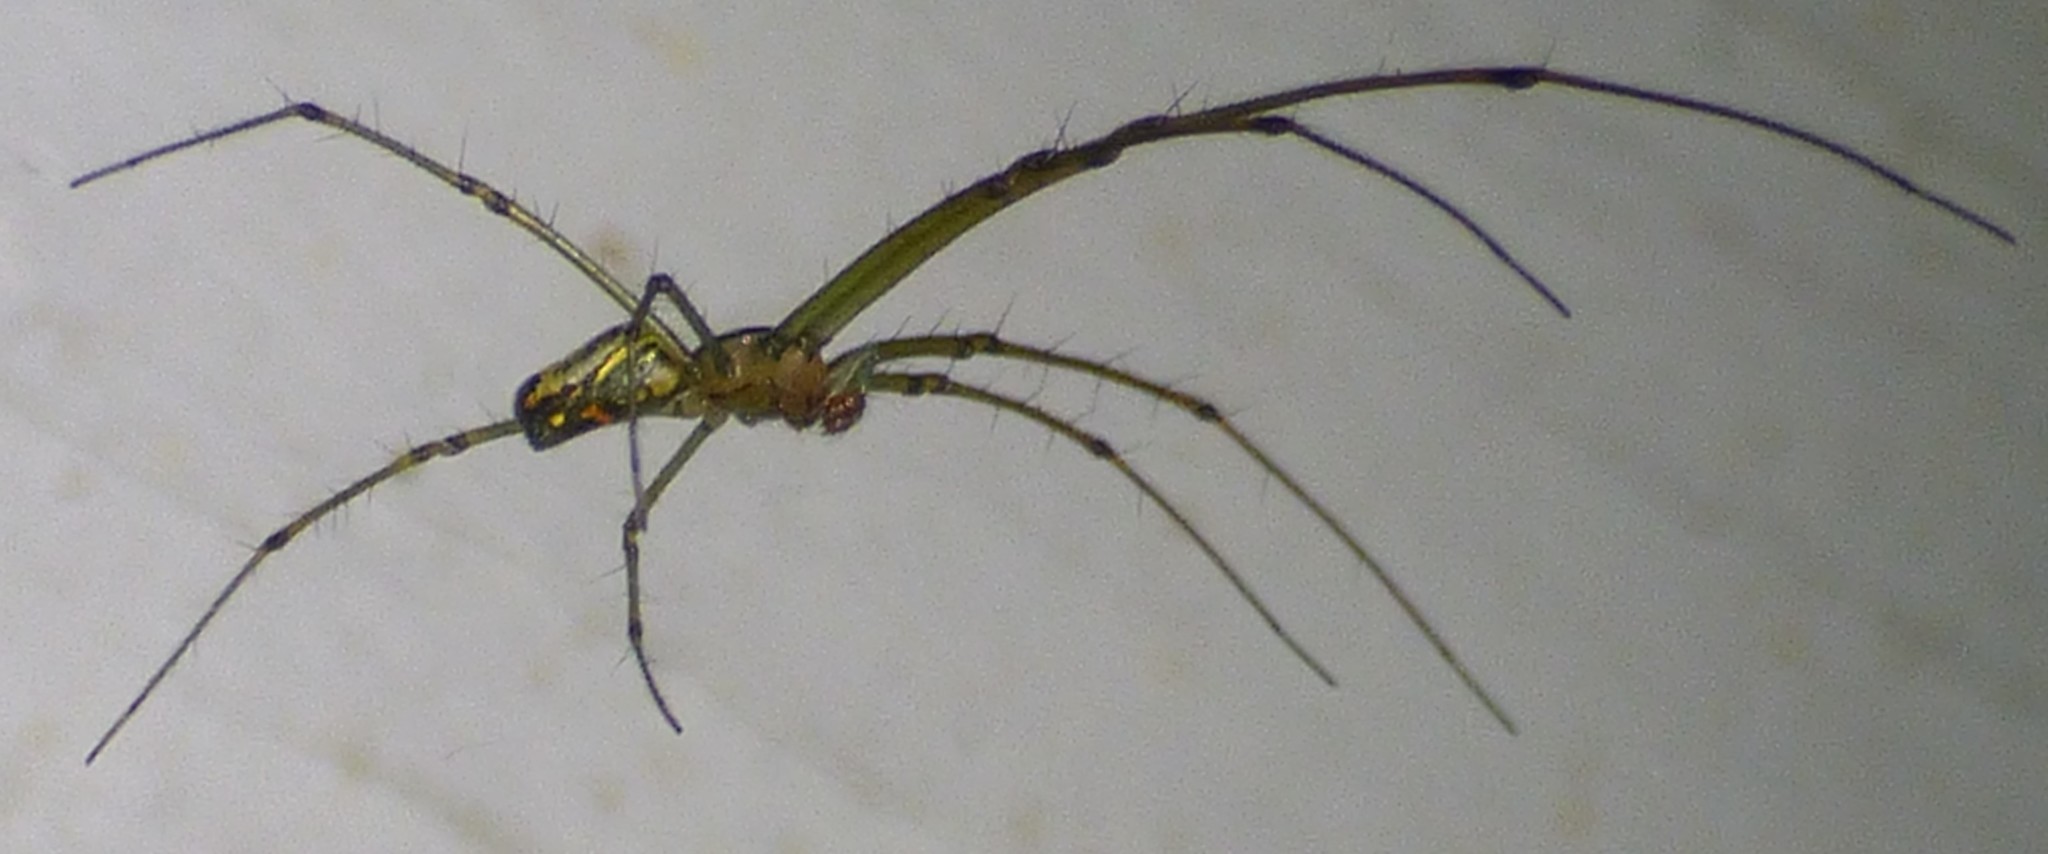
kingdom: Animalia
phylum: Arthropoda
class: Arachnida
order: Araneae
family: Tetragnathidae
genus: Leucauge
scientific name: Leucauge venusta
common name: Longjawed orb weavers
